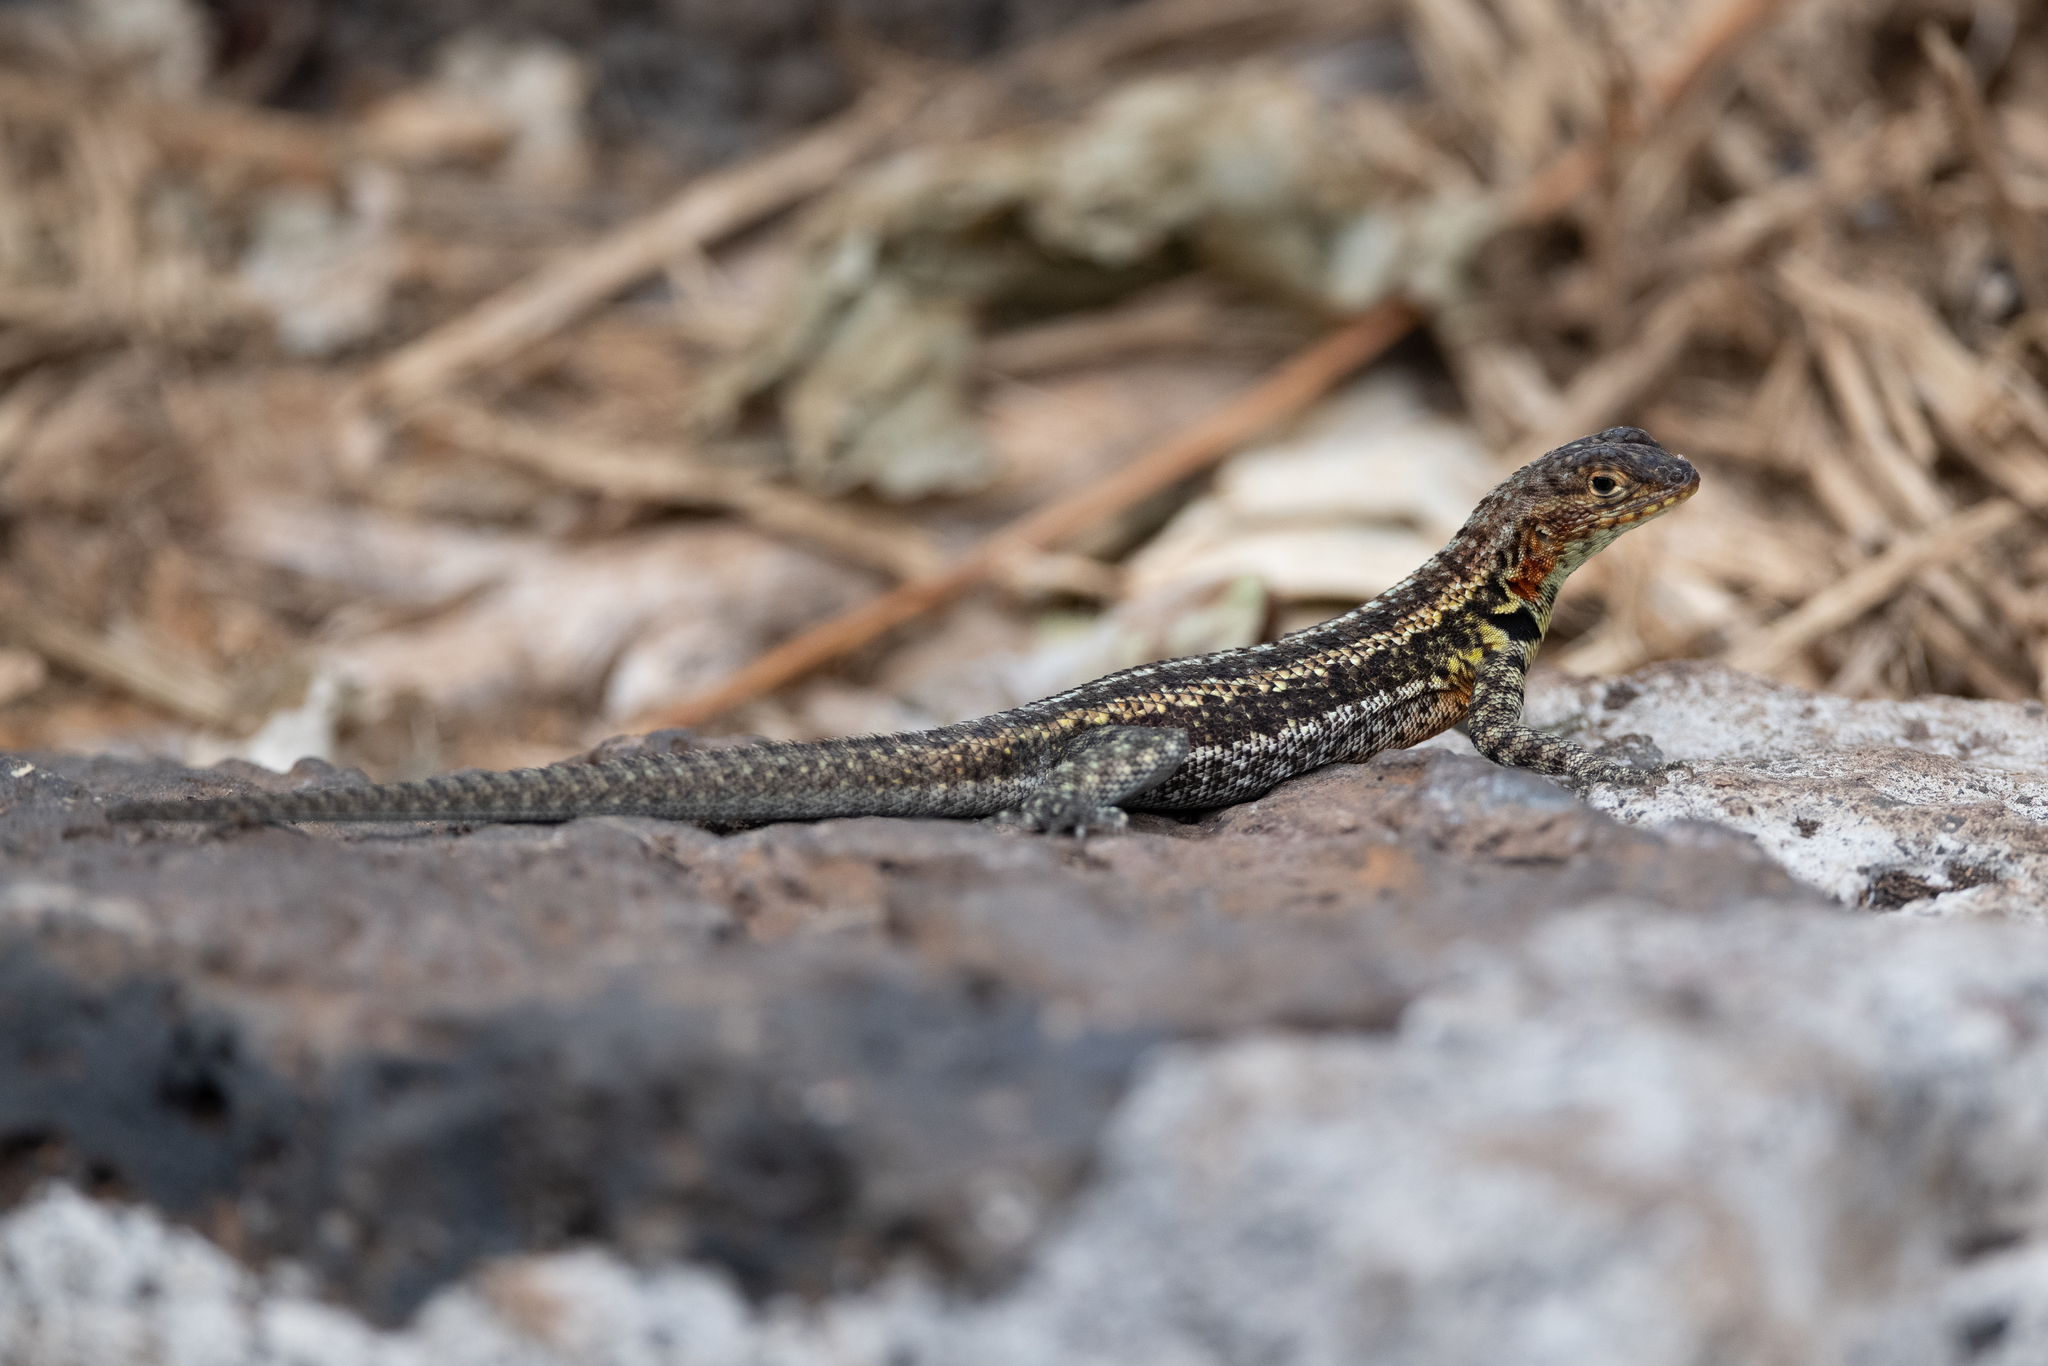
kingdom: Animalia
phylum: Chordata
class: Squamata
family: Tropiduridae
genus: Microlophus
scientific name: Microlophus indefatigabilis
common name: Galapagos lava lizard
